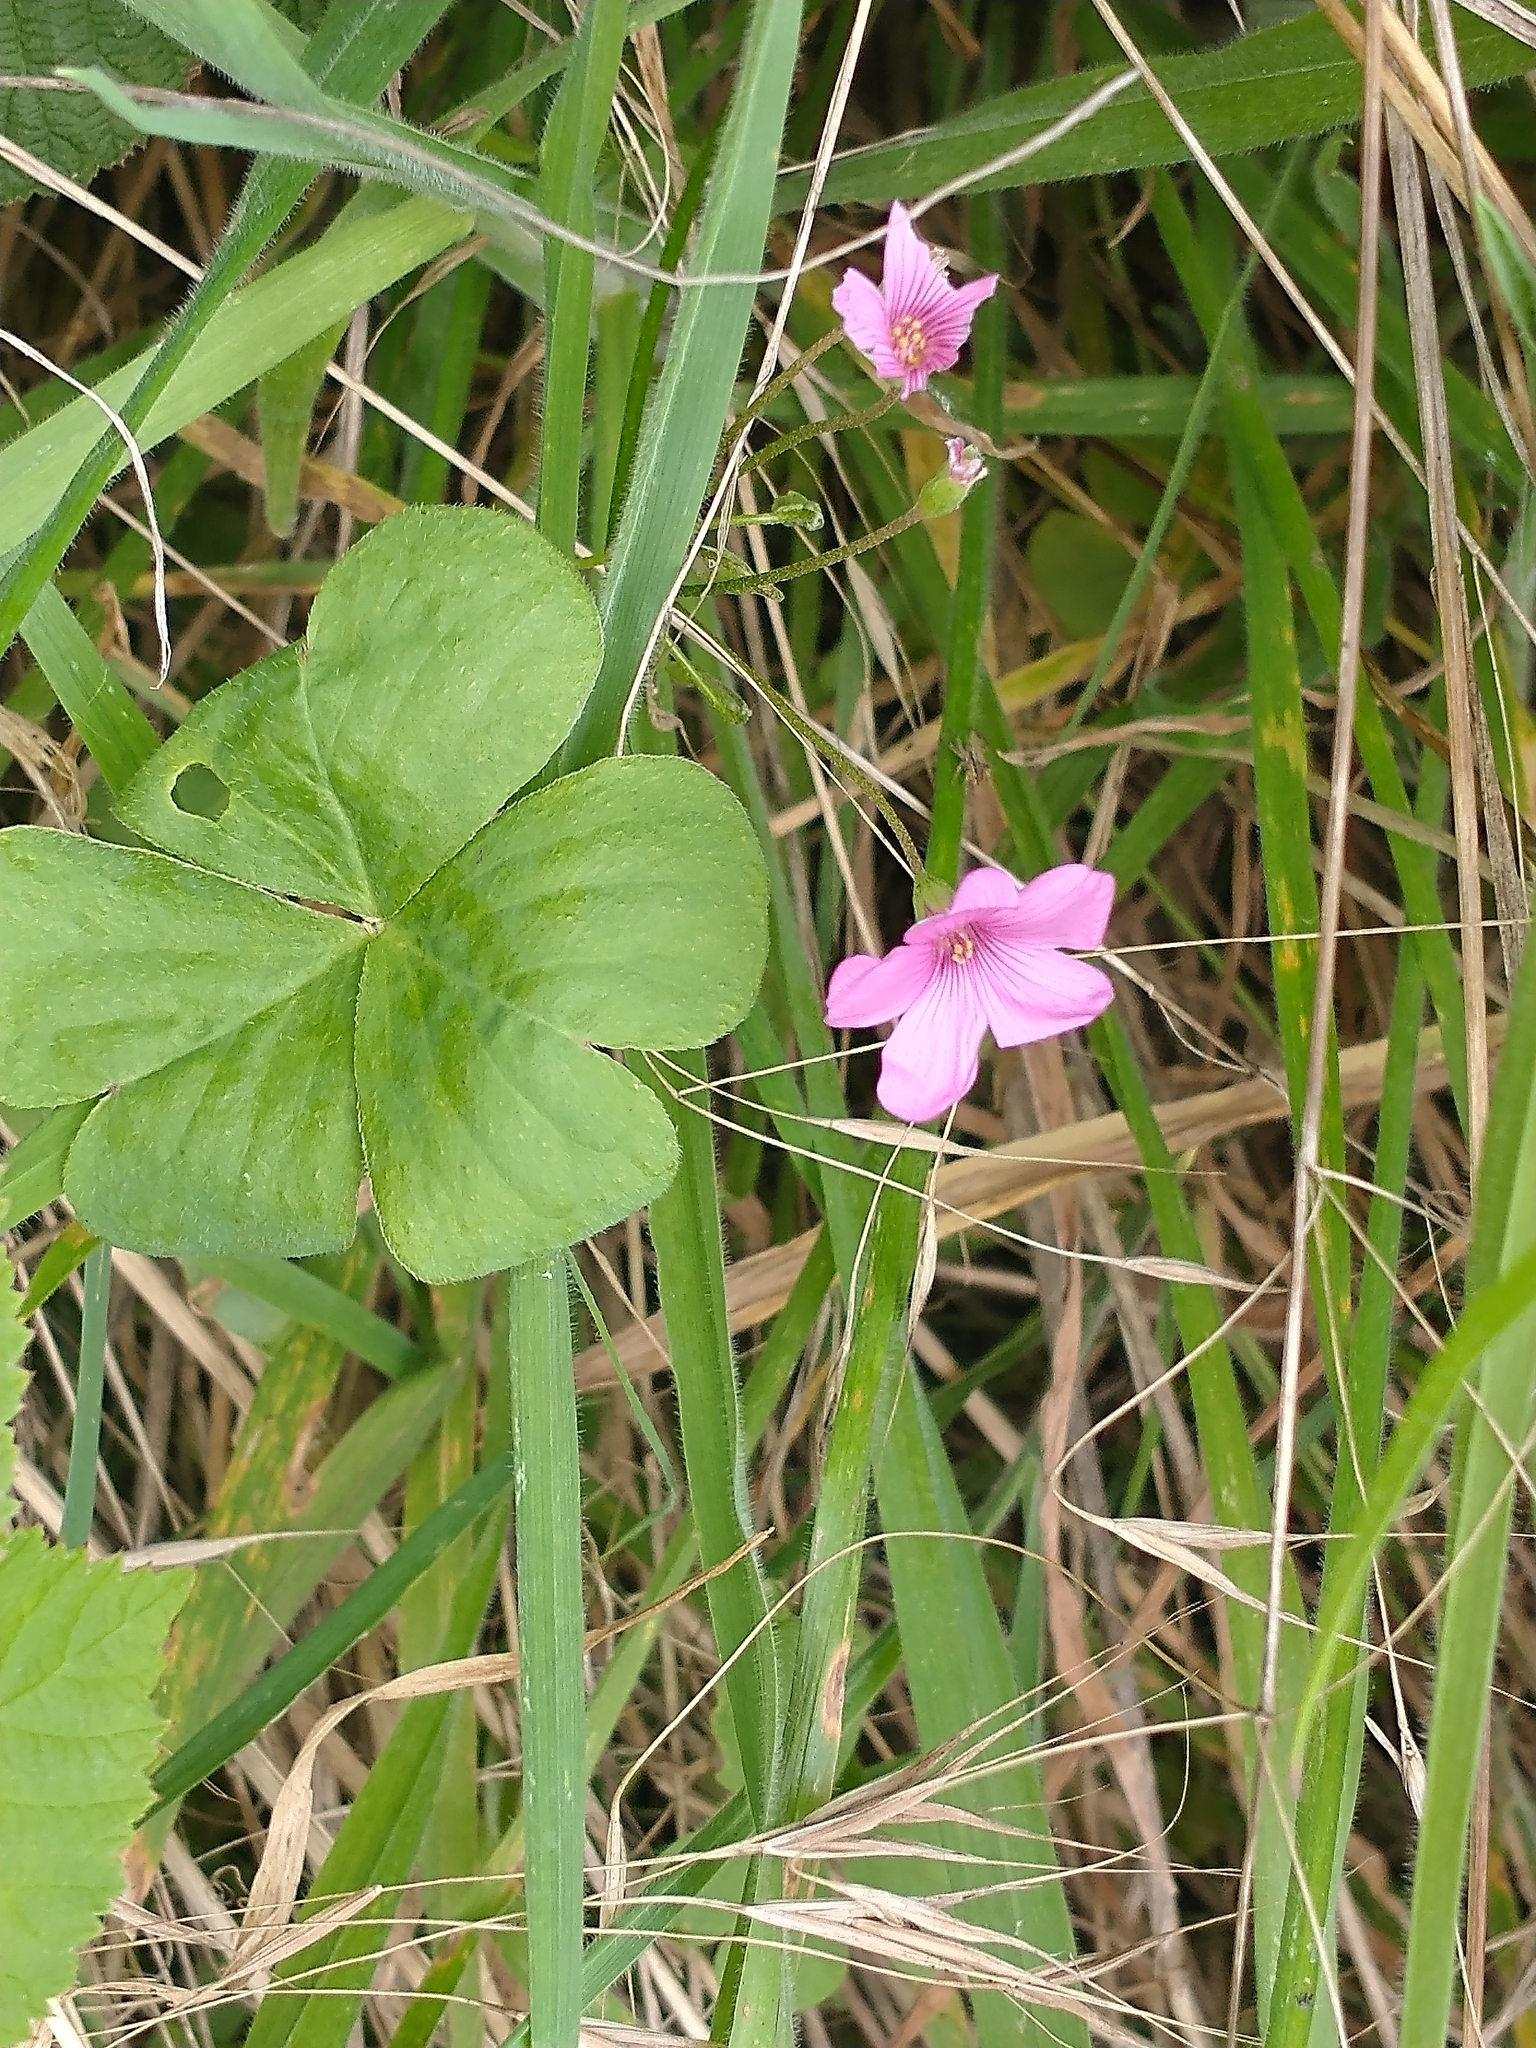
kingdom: Plantae
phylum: Tracheophyta
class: Magnoliopsida
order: Oxalidales
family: Oxalidaceae
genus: Oxalis
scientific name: Oxalis articulata
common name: Pink-sorrel
